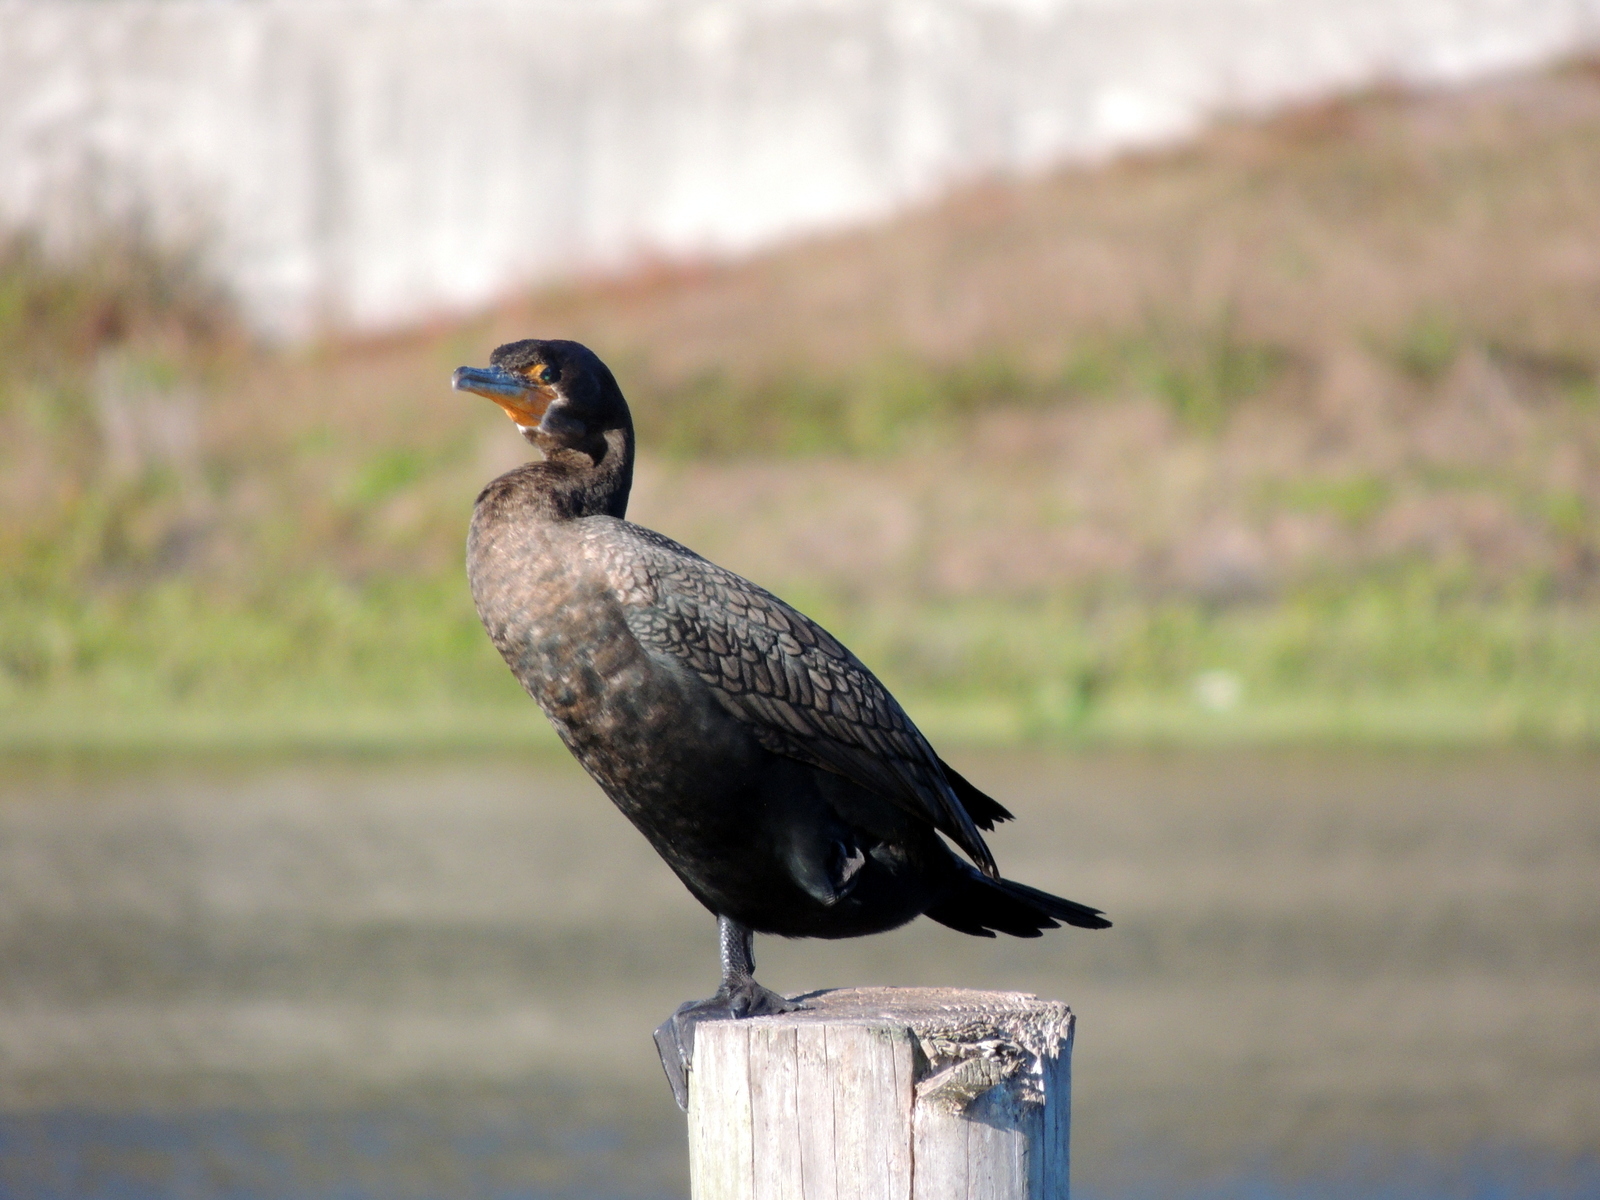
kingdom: Animalia
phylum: Chordata
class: Aves
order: Suliformes
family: Phalacrocoracidae
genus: Phalacrocorax
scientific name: Phalacrocorax auritus
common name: Double-crested cormorant
